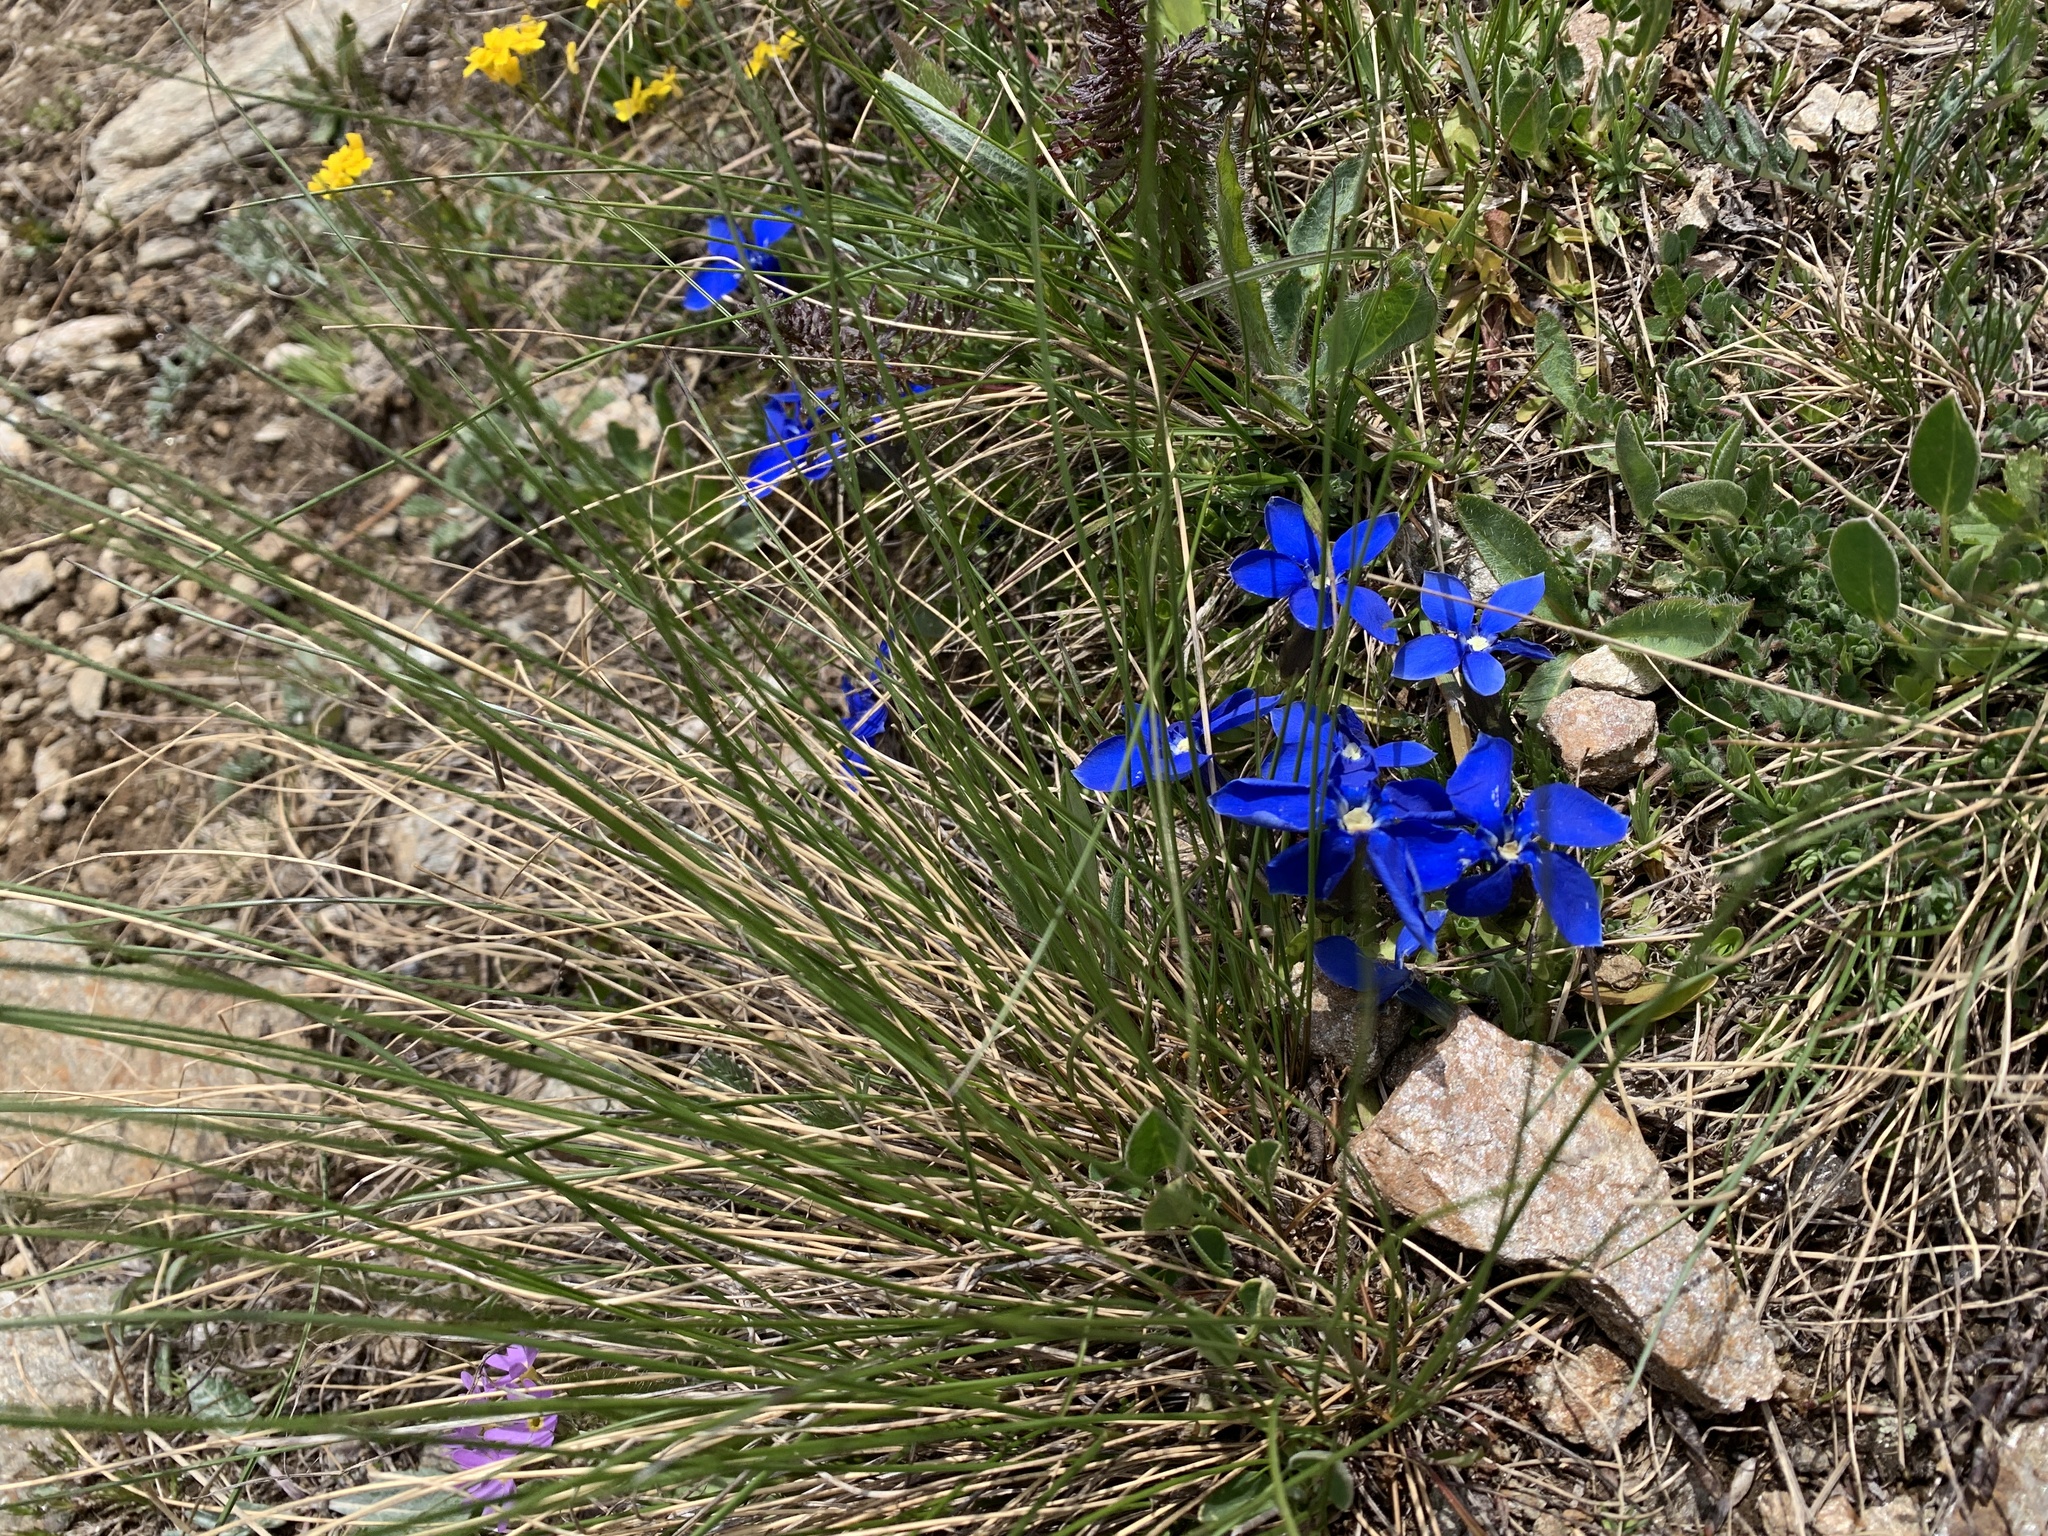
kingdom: Plantae
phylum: Tracheophyta
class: Magnoliopsida
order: Gentianales
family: Gentianaceae
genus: Gentiana
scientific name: Gentiana verna
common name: Spring gentian
